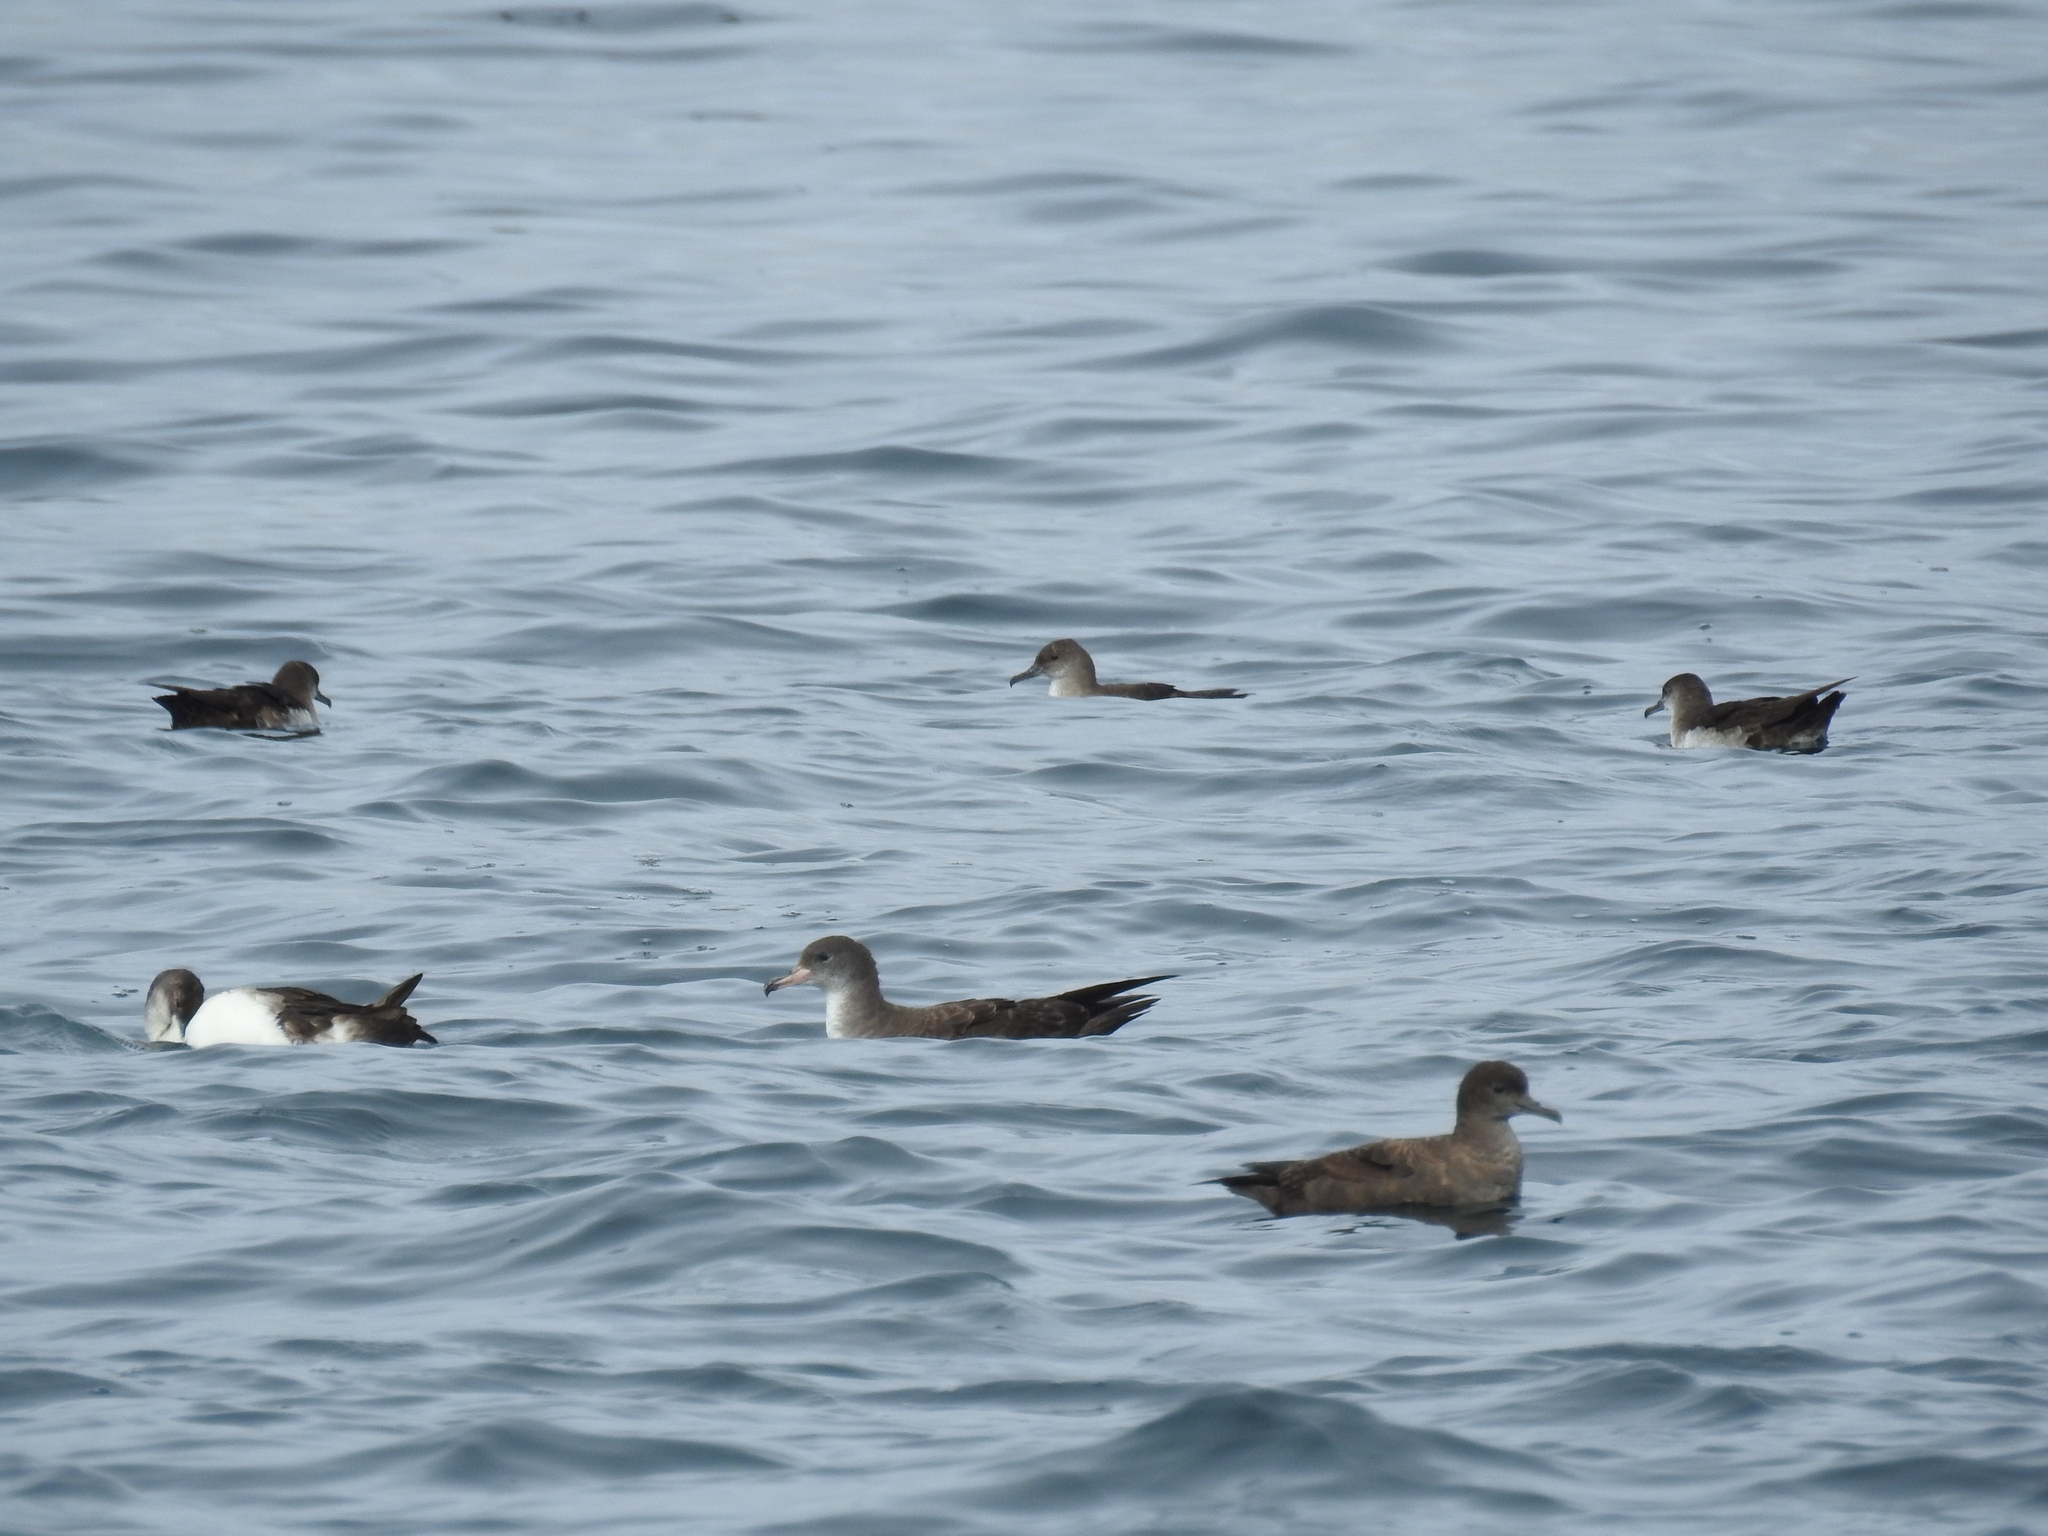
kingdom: Animalia
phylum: Chordata
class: Aves
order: Procellariiformes
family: Procellariidae
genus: Puffinus
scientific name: Puffinus opisthomelas
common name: Black-vented shearwater
